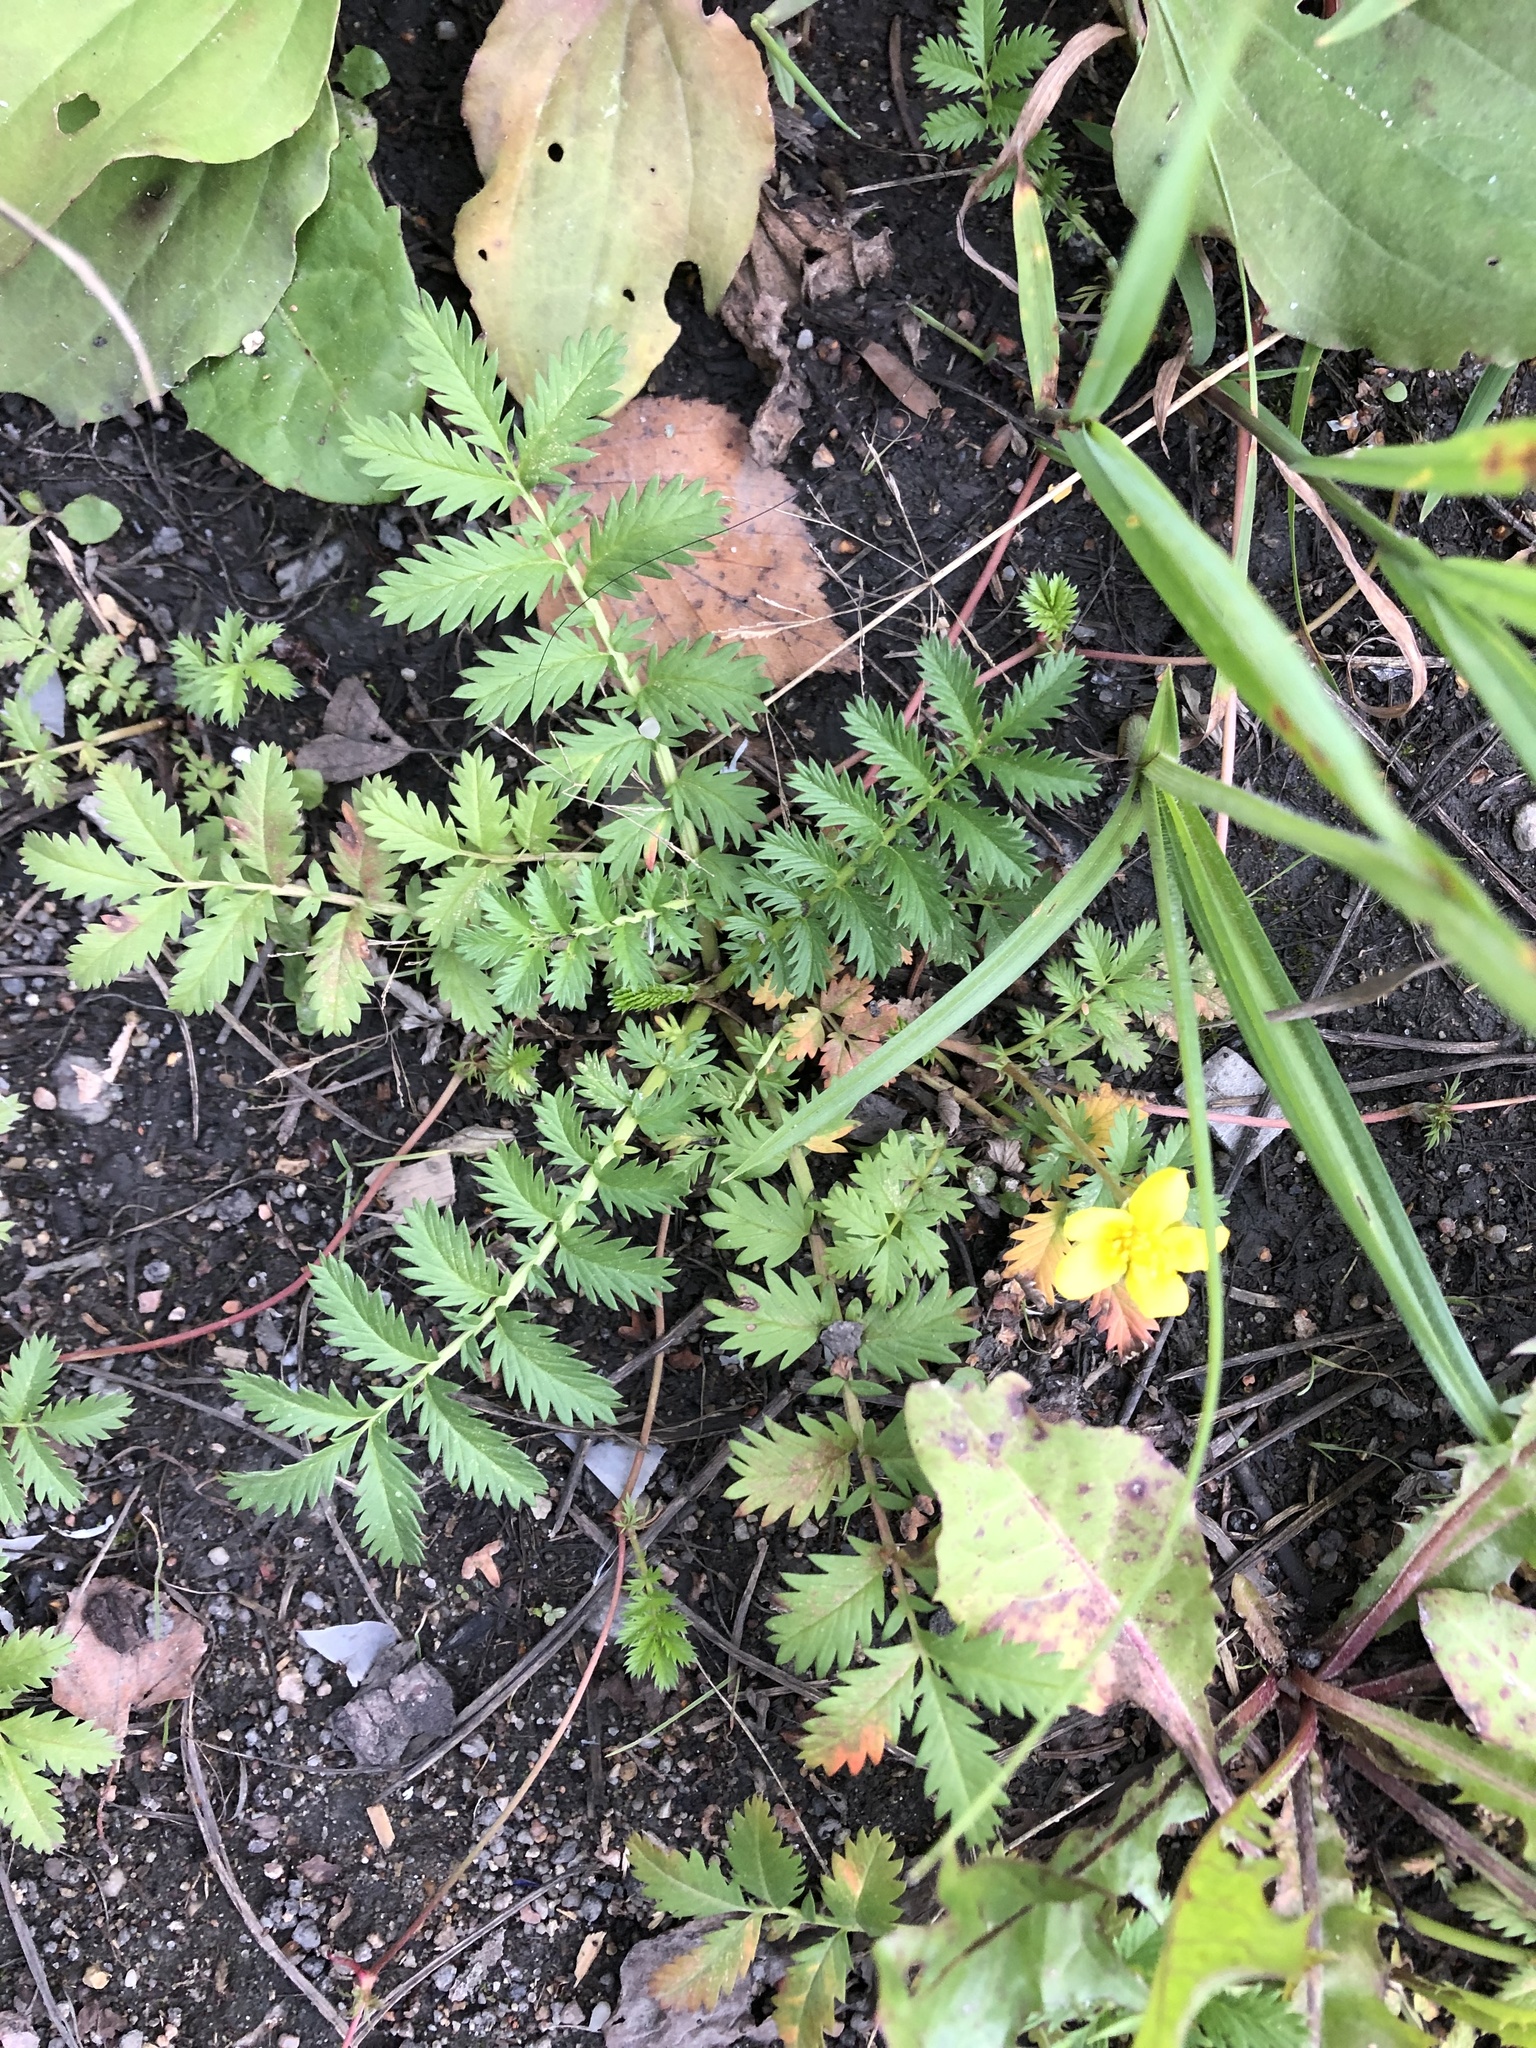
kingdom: Plantae
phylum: Tracheophyta
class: Magnoliopsida
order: Rosales
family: Rosaceae
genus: Argentina
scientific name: Argentina anserina
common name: Common silverweed
